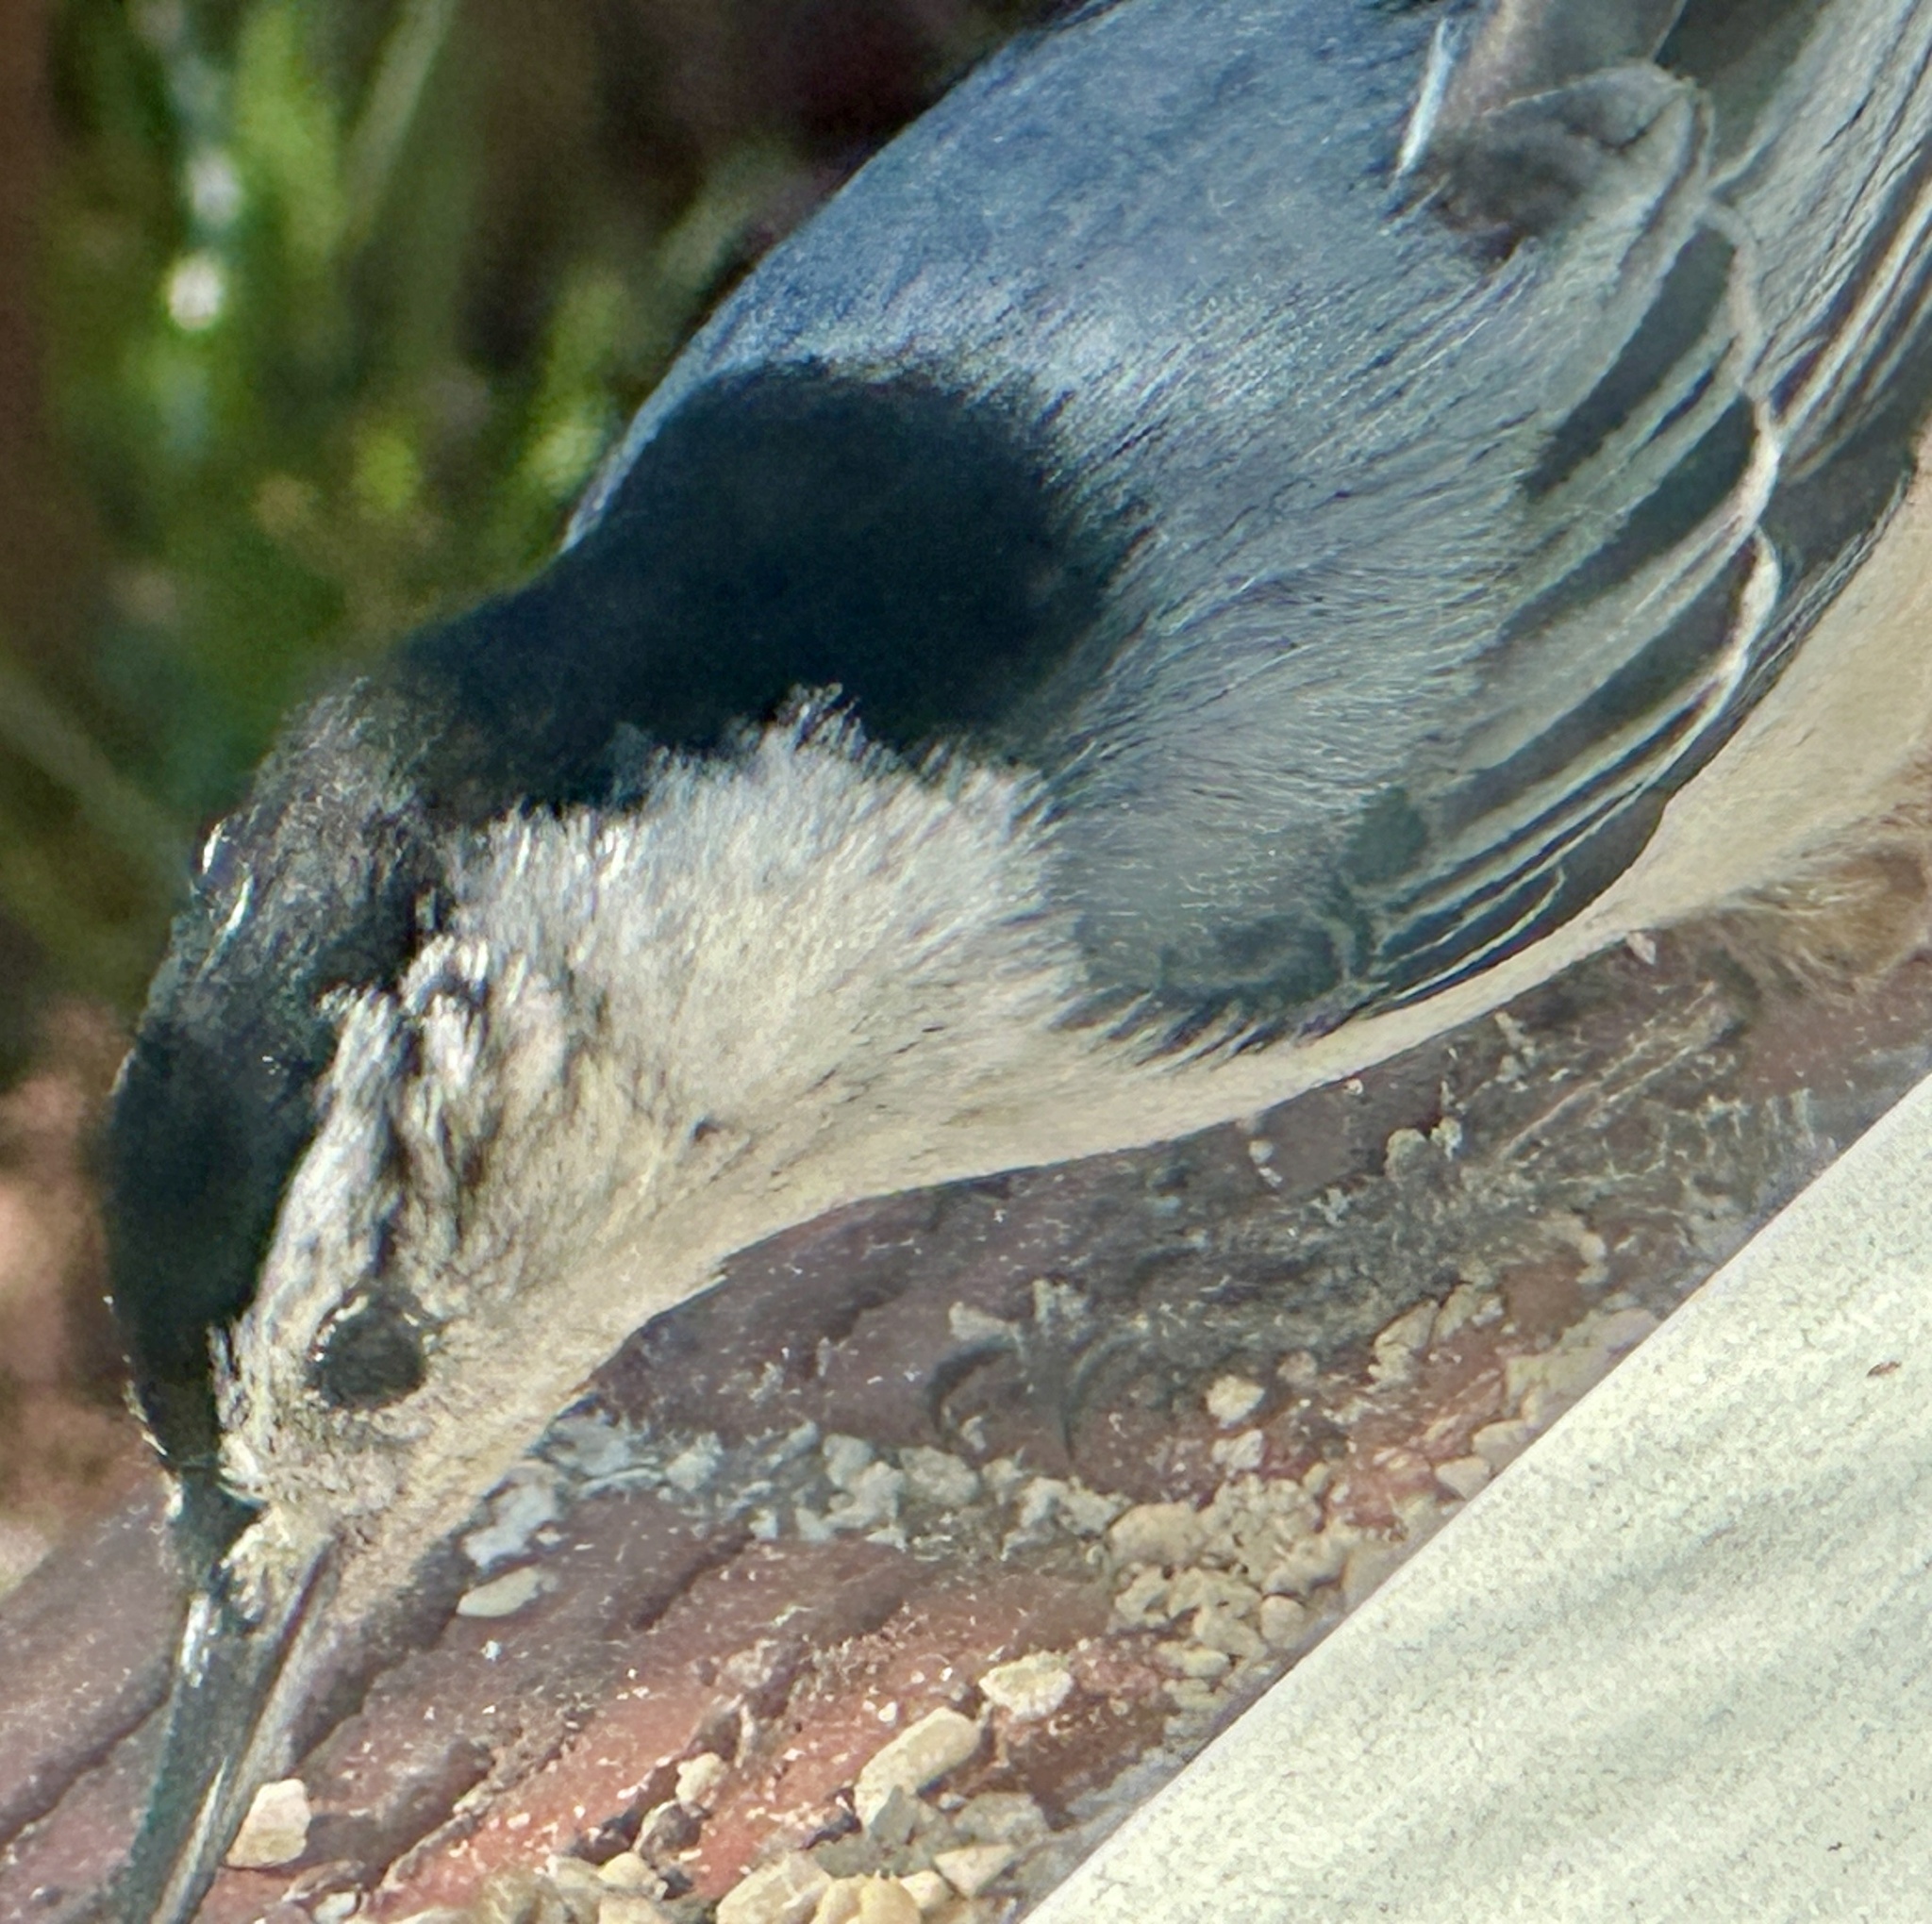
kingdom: Animalia
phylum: Chordata
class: Aves
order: Passeriformes
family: Sittidae
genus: Sitta
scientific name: Sitta carolinensis
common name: White-breasted nuthatch
